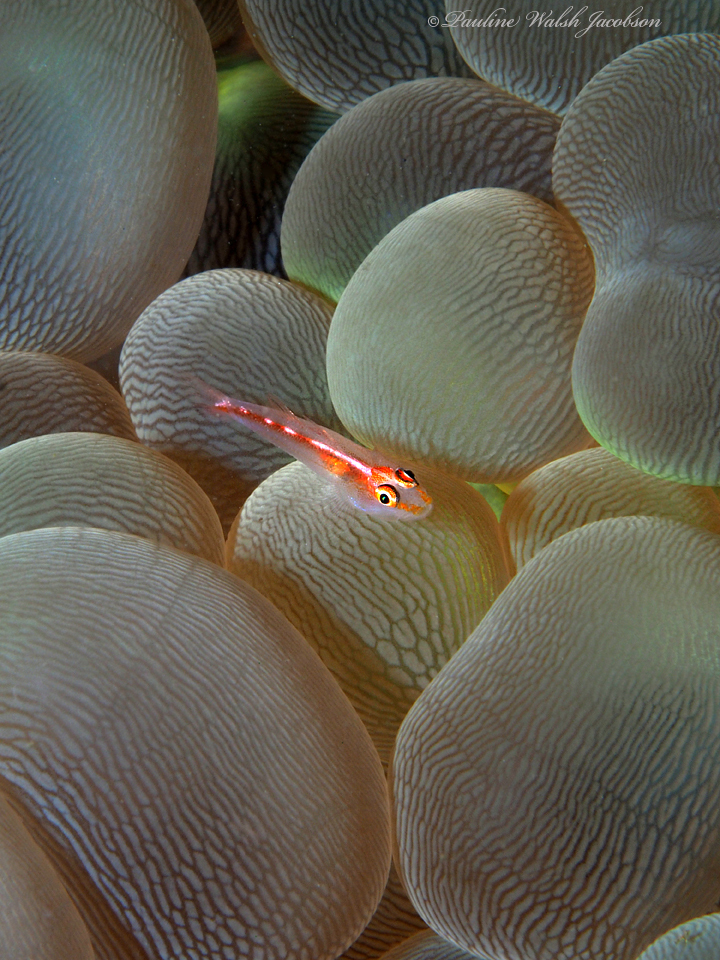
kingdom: Animalia
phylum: Chordata
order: Perciformes
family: Gobiidae
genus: Pleurosicya
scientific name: Pleurosicya micheli
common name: Cling goby
